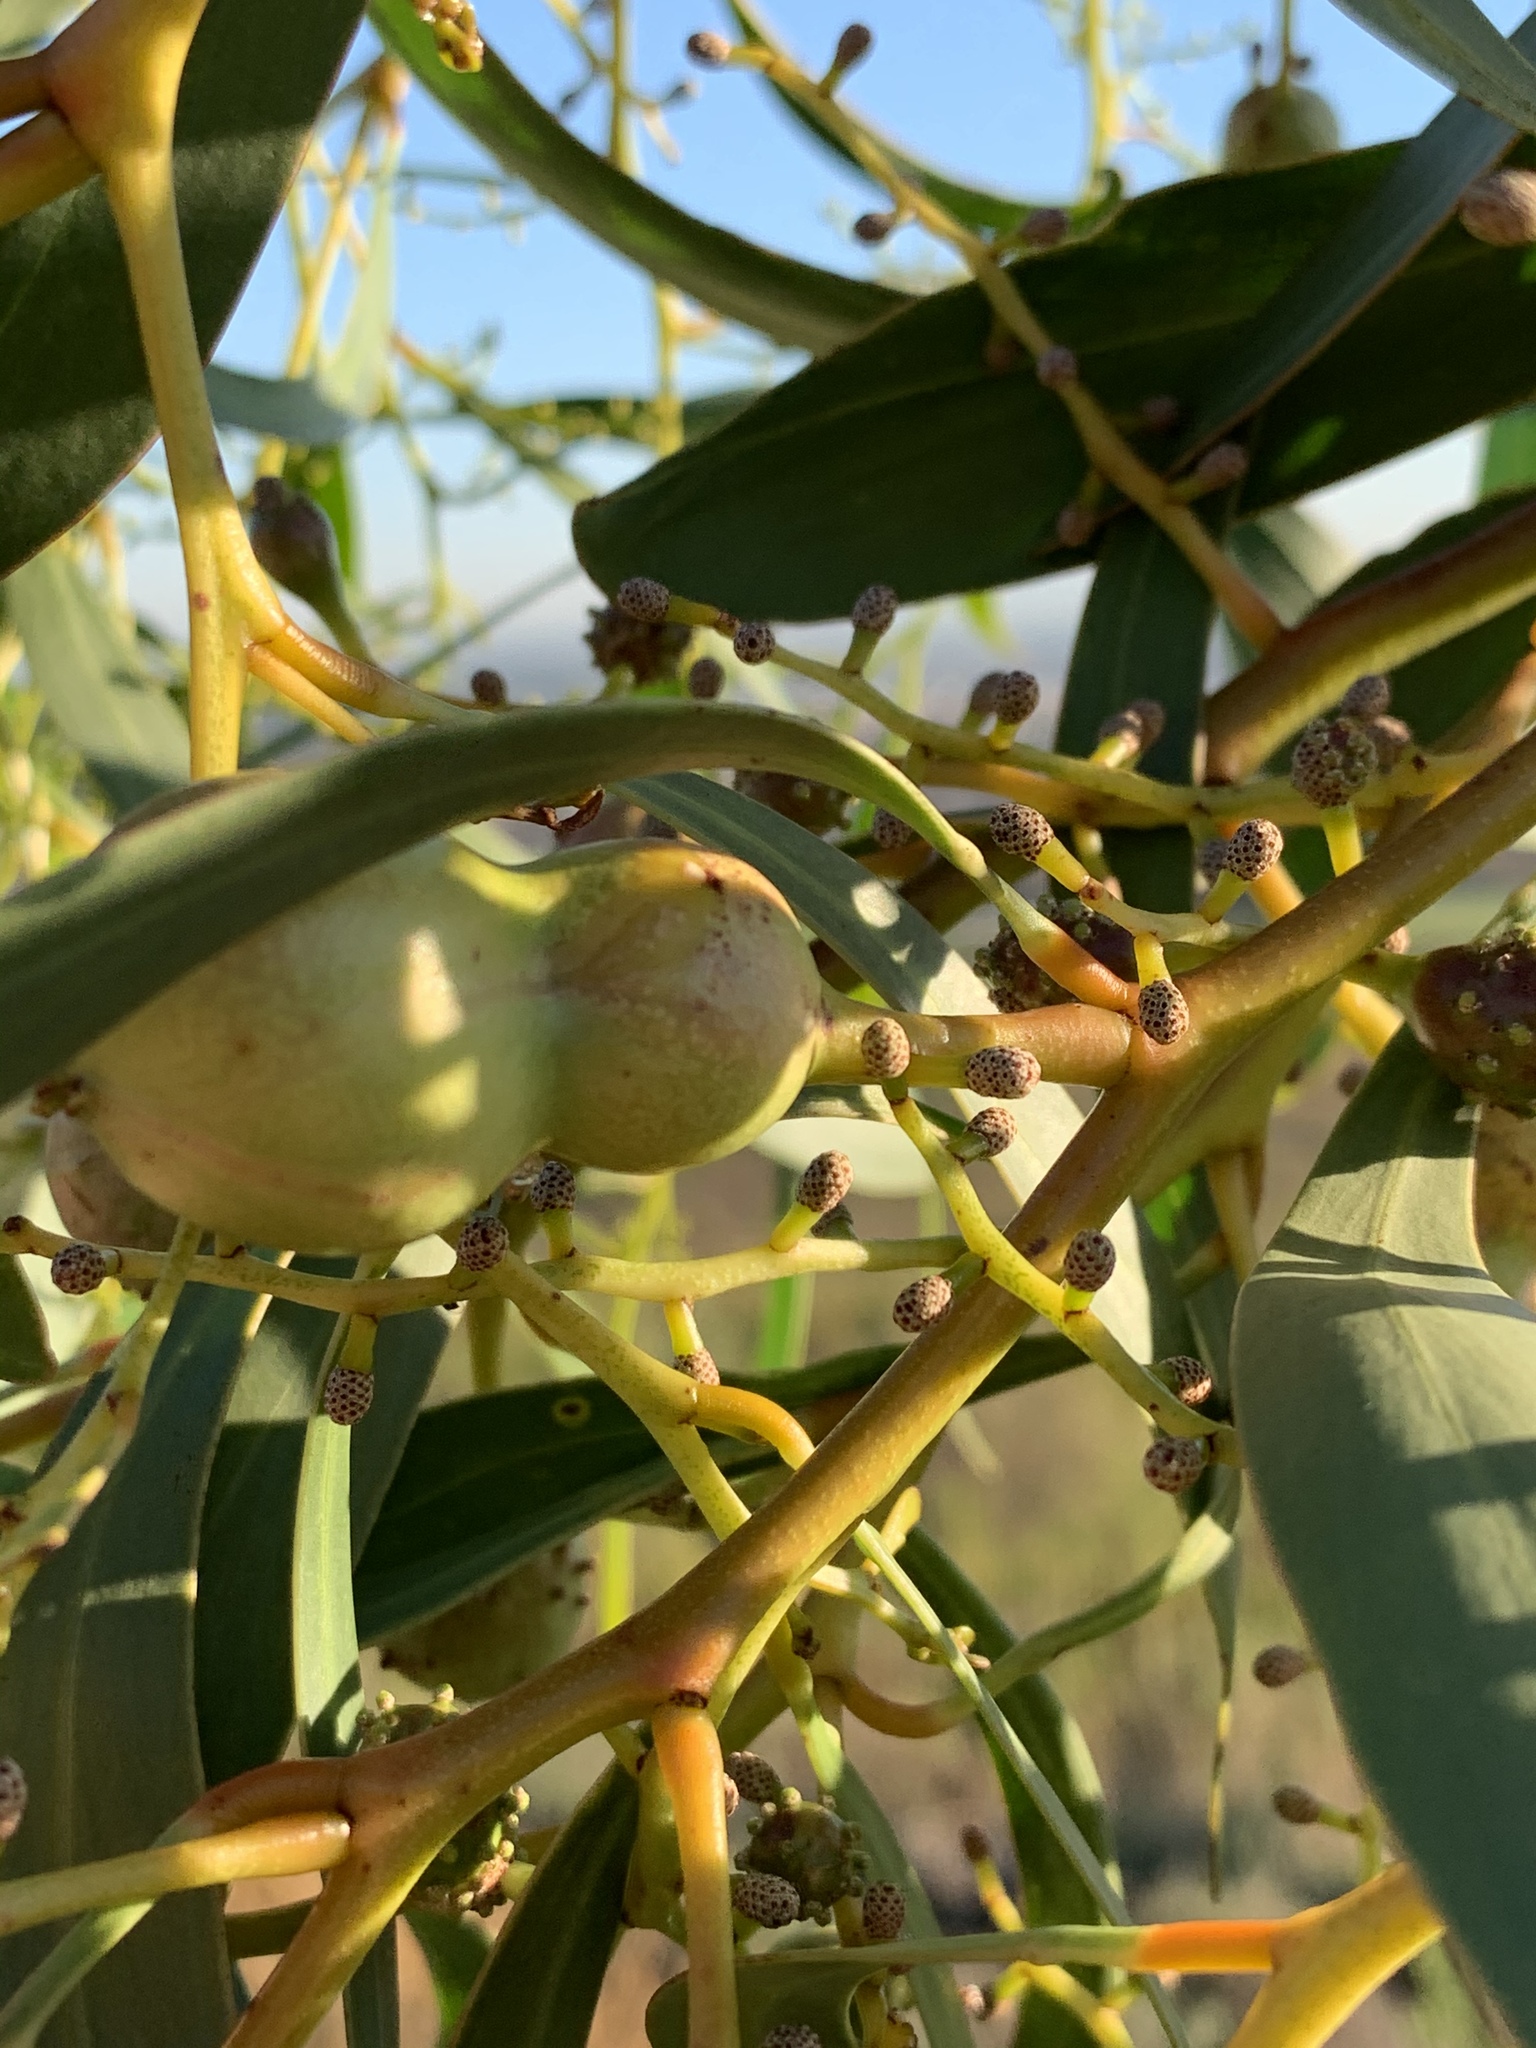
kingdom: Animalia
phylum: Arthropoda
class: Insecta
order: Hymenoptera
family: Pteromalidae
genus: Trichilogaster
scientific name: Trichilogaster signiventris
